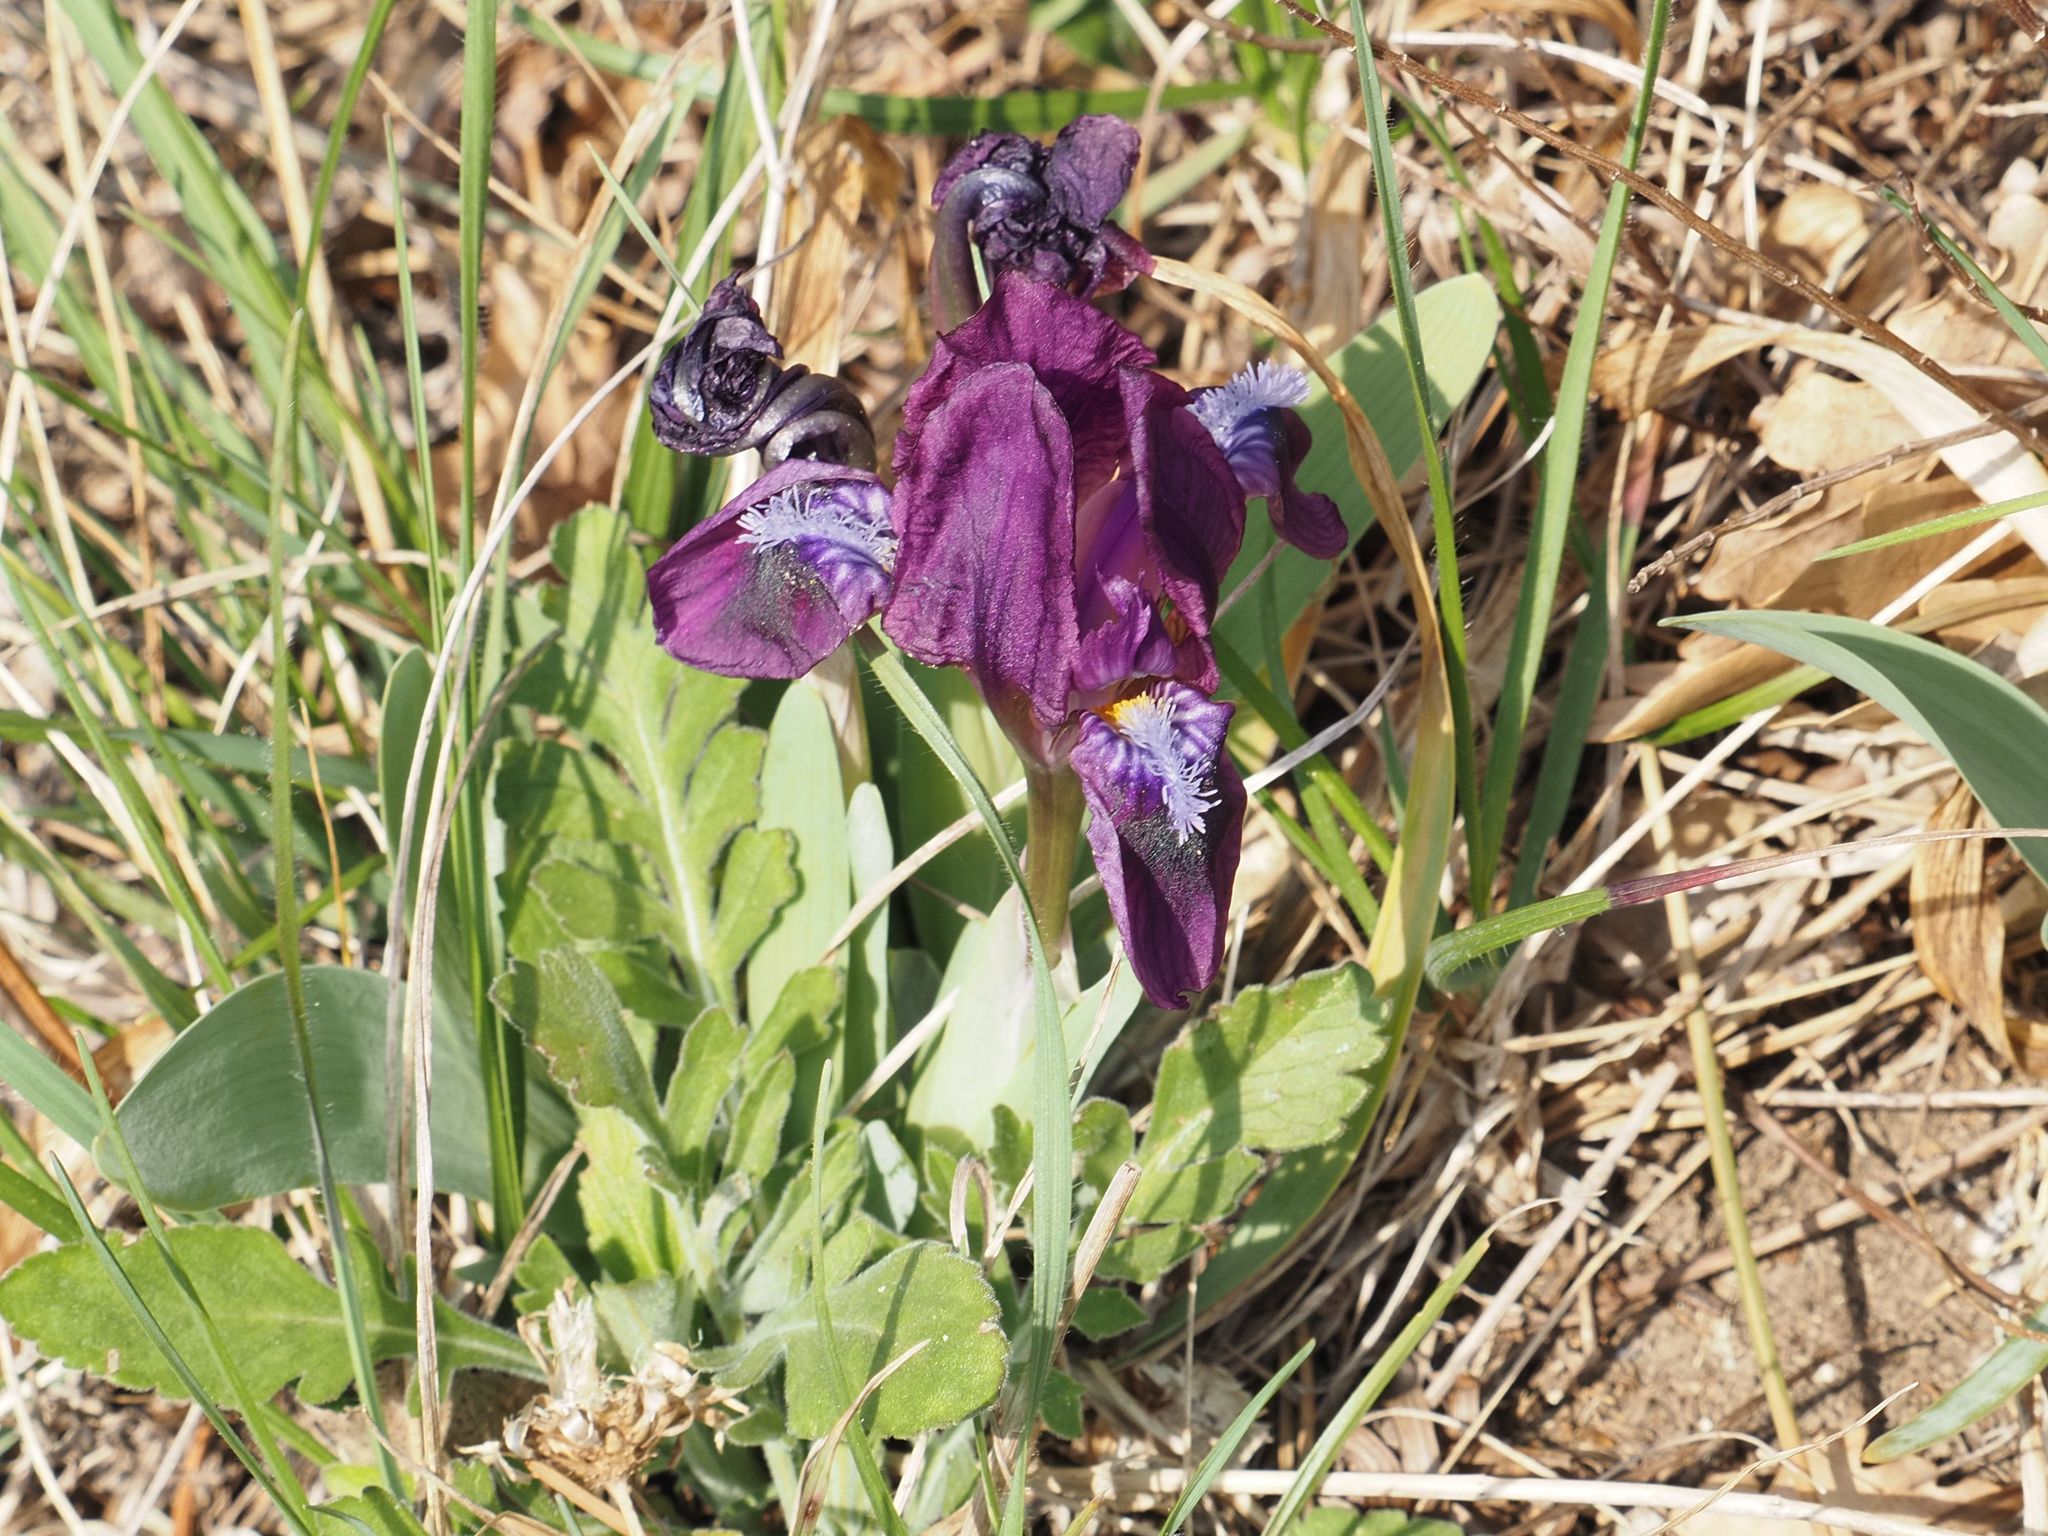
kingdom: Plantae
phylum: Tracheophyta
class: Liliopsida
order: Asparagales
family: Iridaceae
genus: Iris
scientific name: Iris pumila
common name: Dwarf iris
